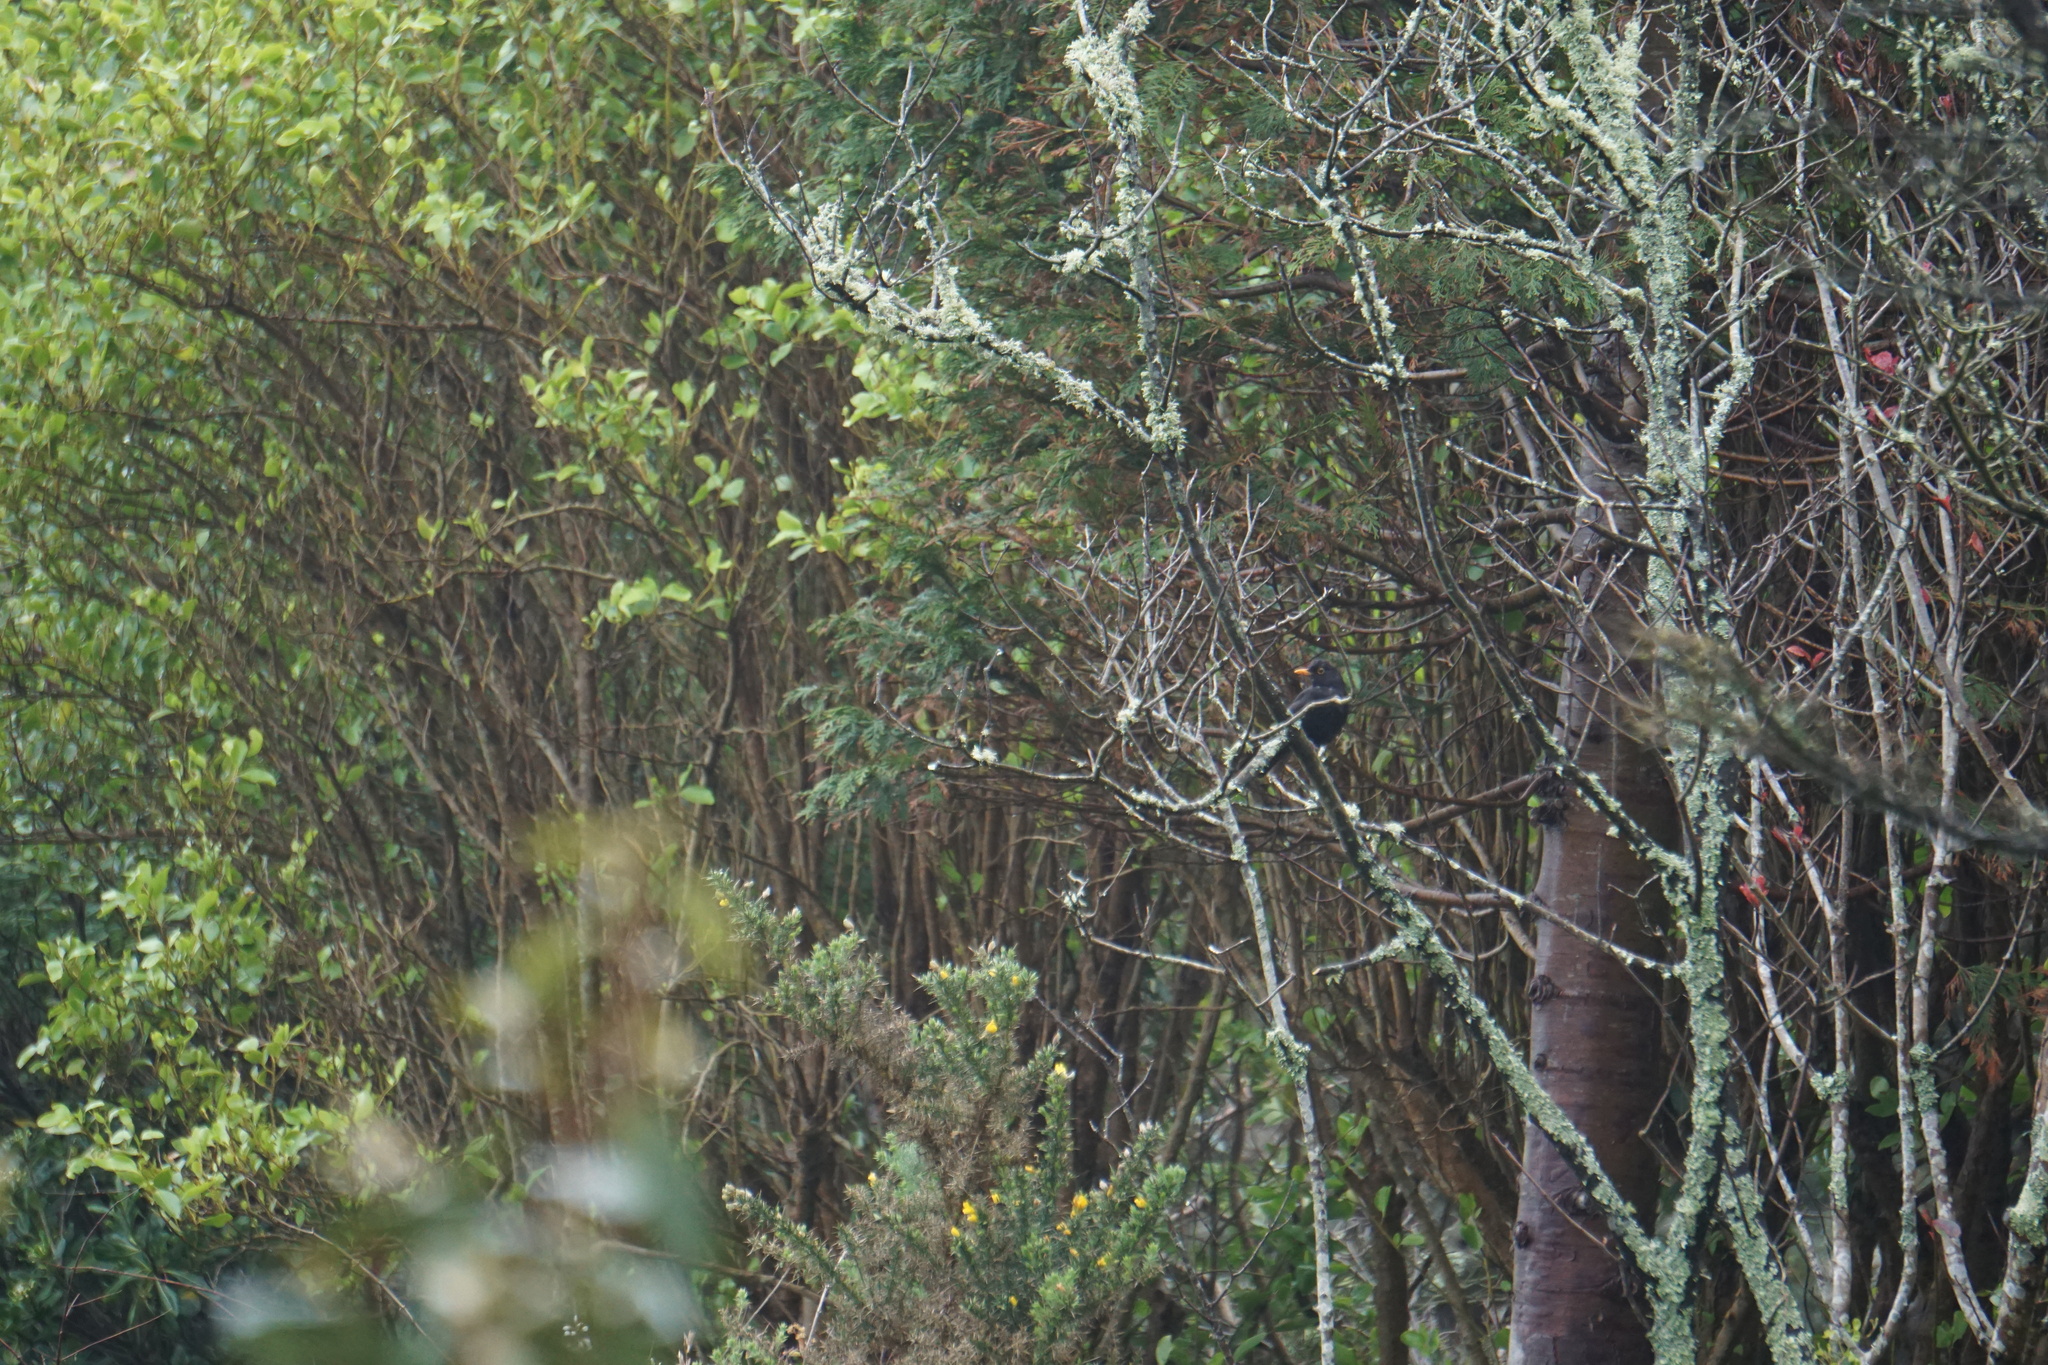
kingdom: Animalia
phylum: Chordata
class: Aves
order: Passeriformes
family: Turdidae
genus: Turdus
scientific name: Turdus merula
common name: Common blackbird
